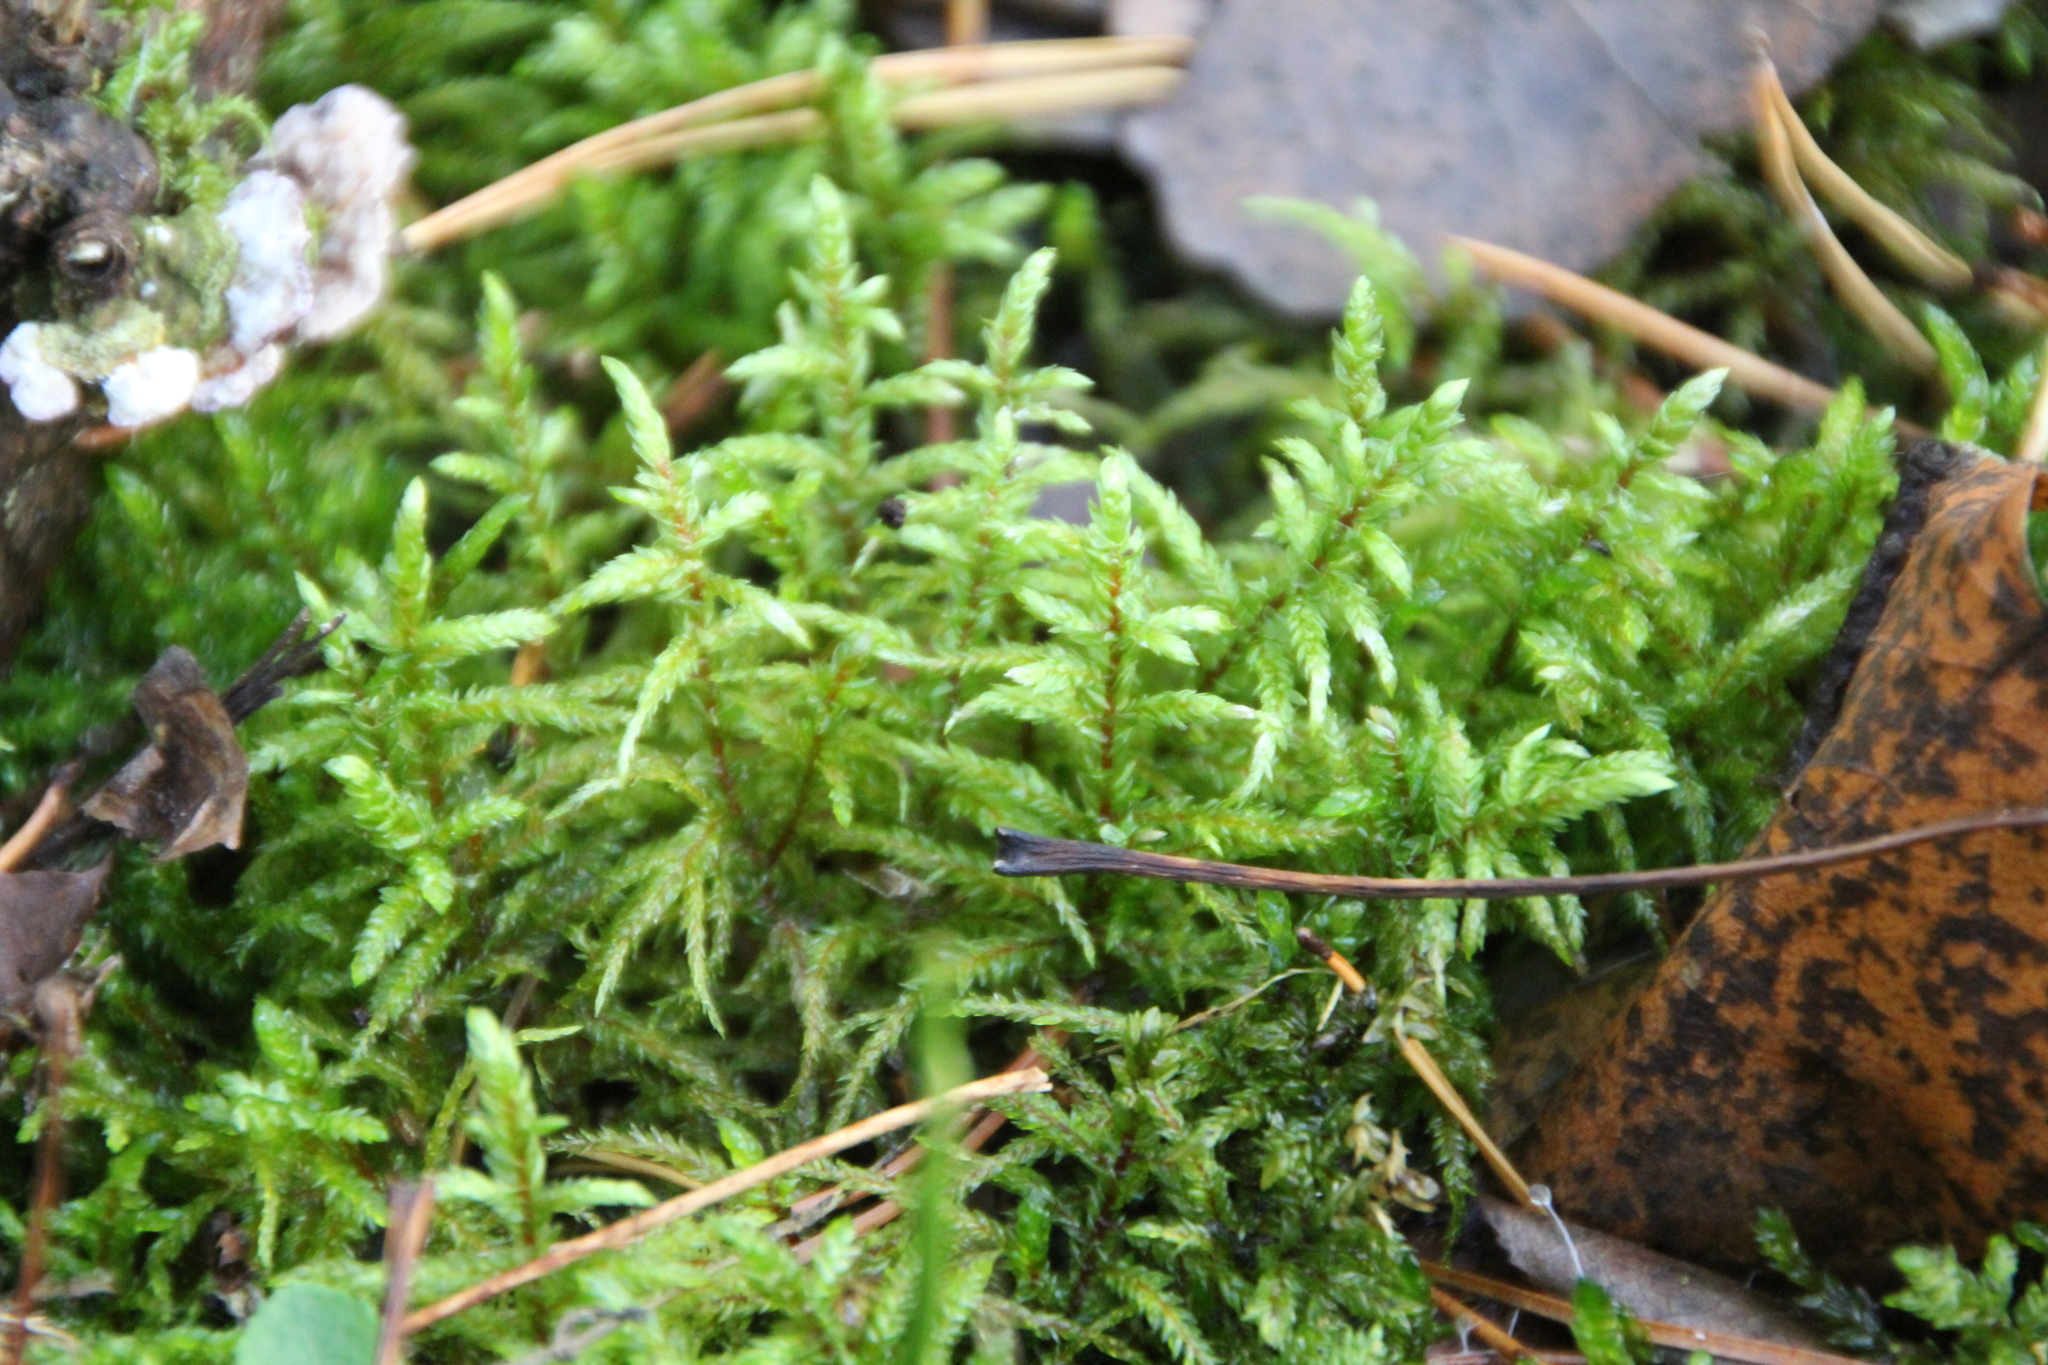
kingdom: Plantae
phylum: Bryophyta
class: Bryopsida
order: Hypnales
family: Hylocomiaceae
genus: Pleurozium
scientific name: Pleurozium schreberi
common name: Red-stemmed feather moss
